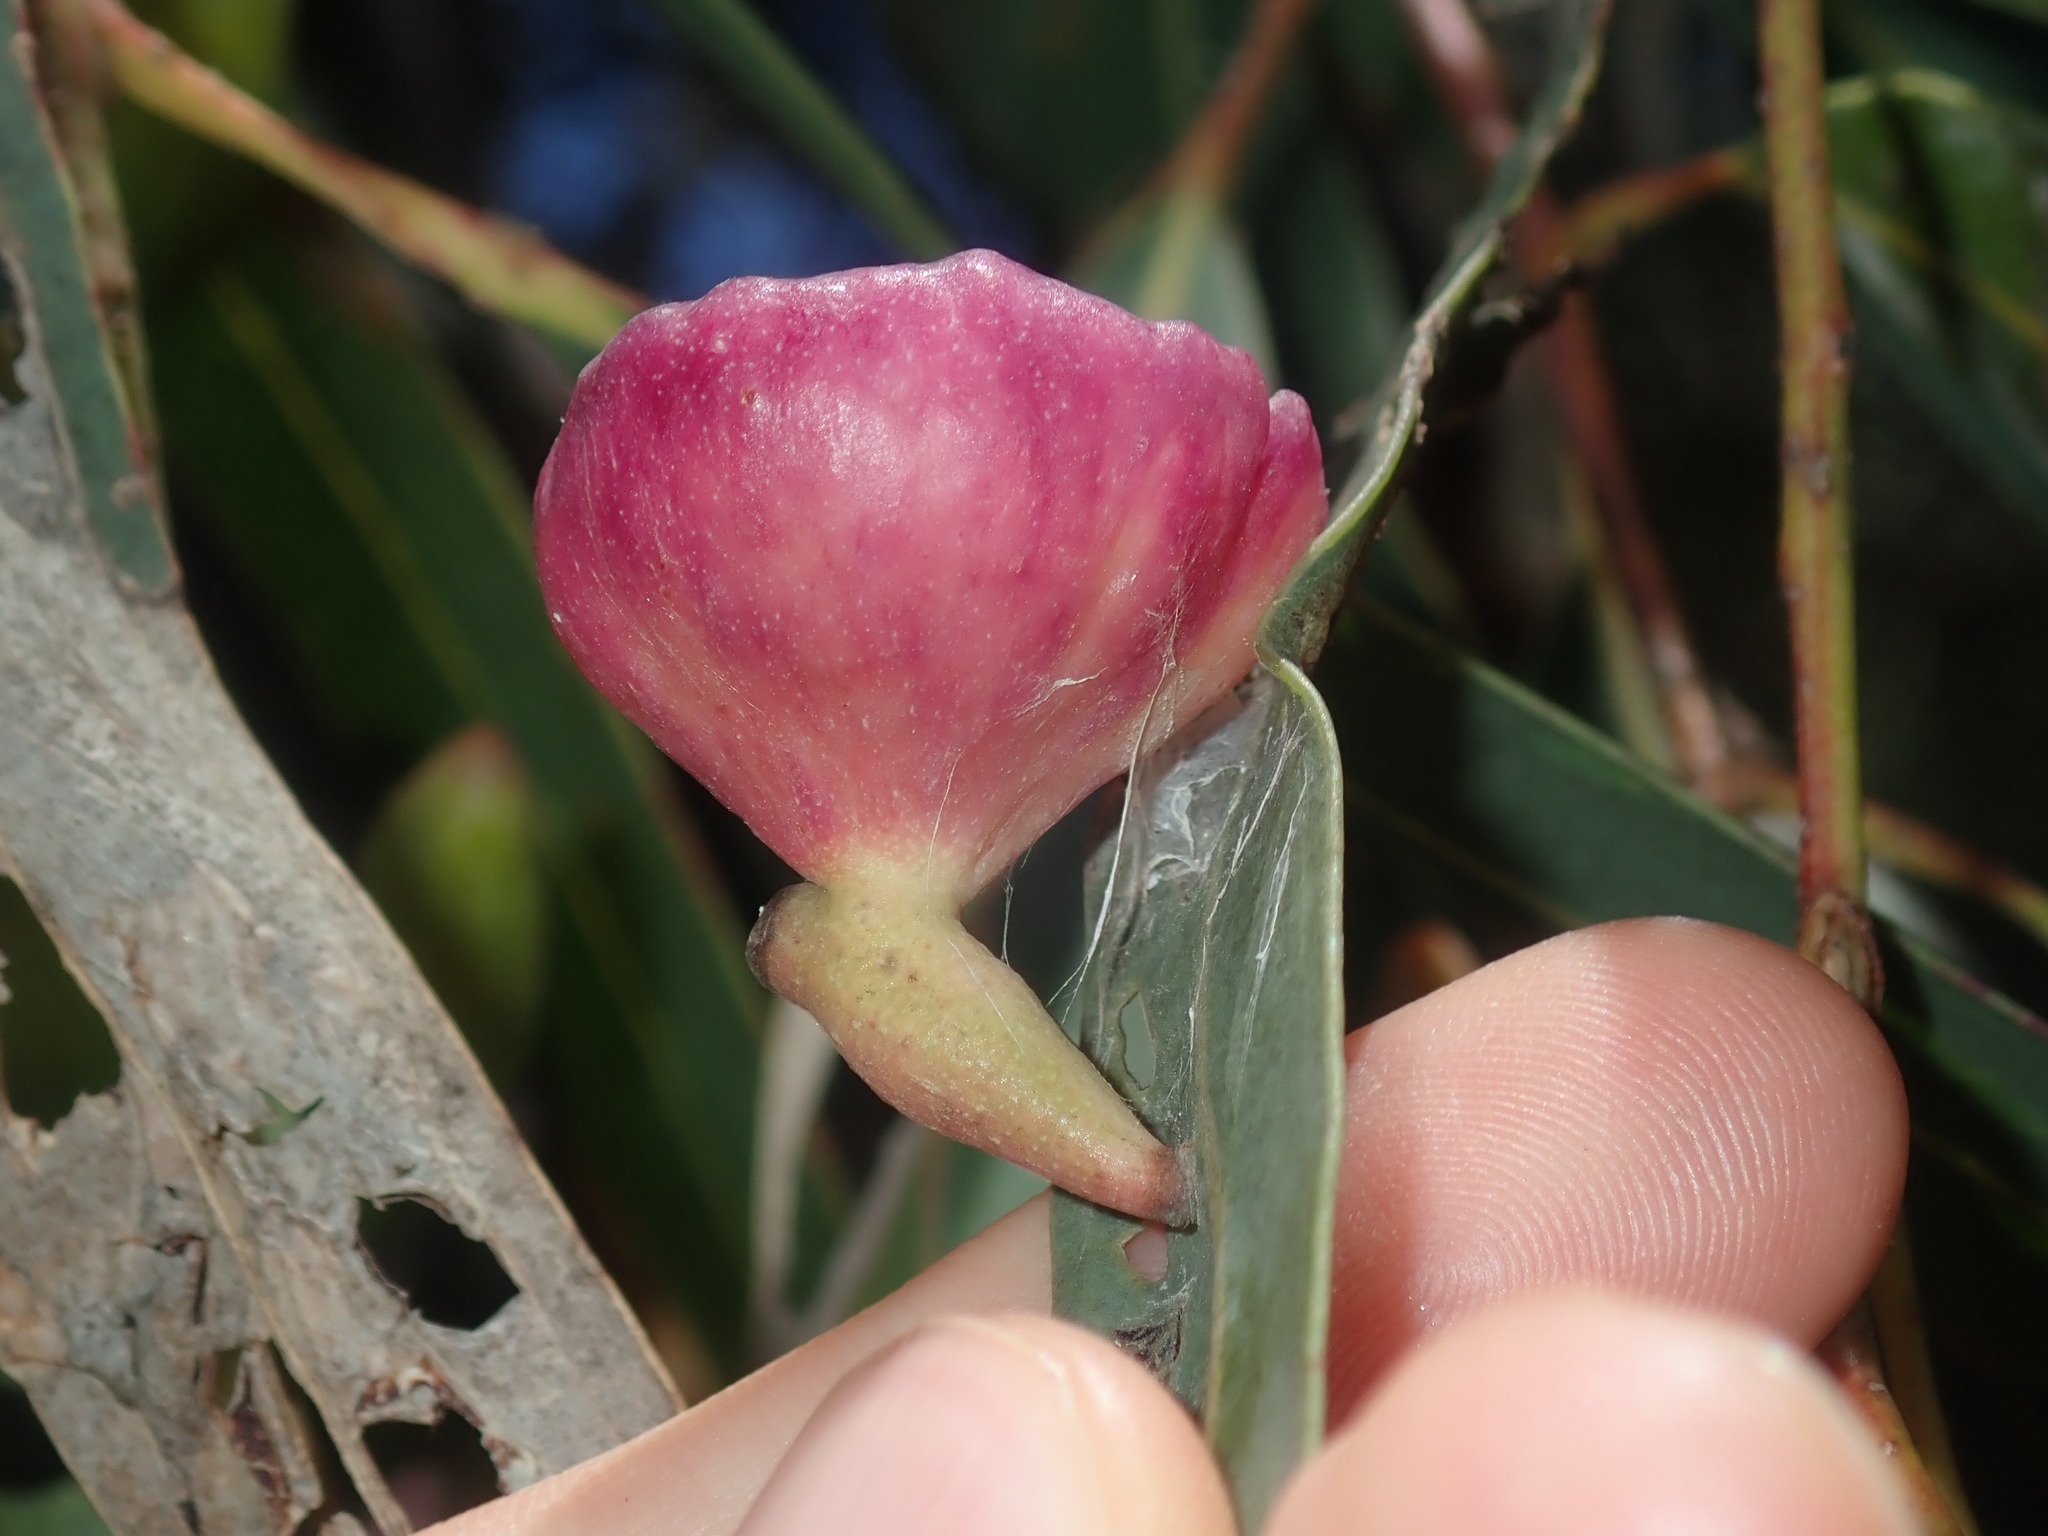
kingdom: Animalia
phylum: Arthropoda
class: Insecta
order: Hemiptera
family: Eriococcidae
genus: Apiomorpha
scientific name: Apiomorpha rosaeforma
